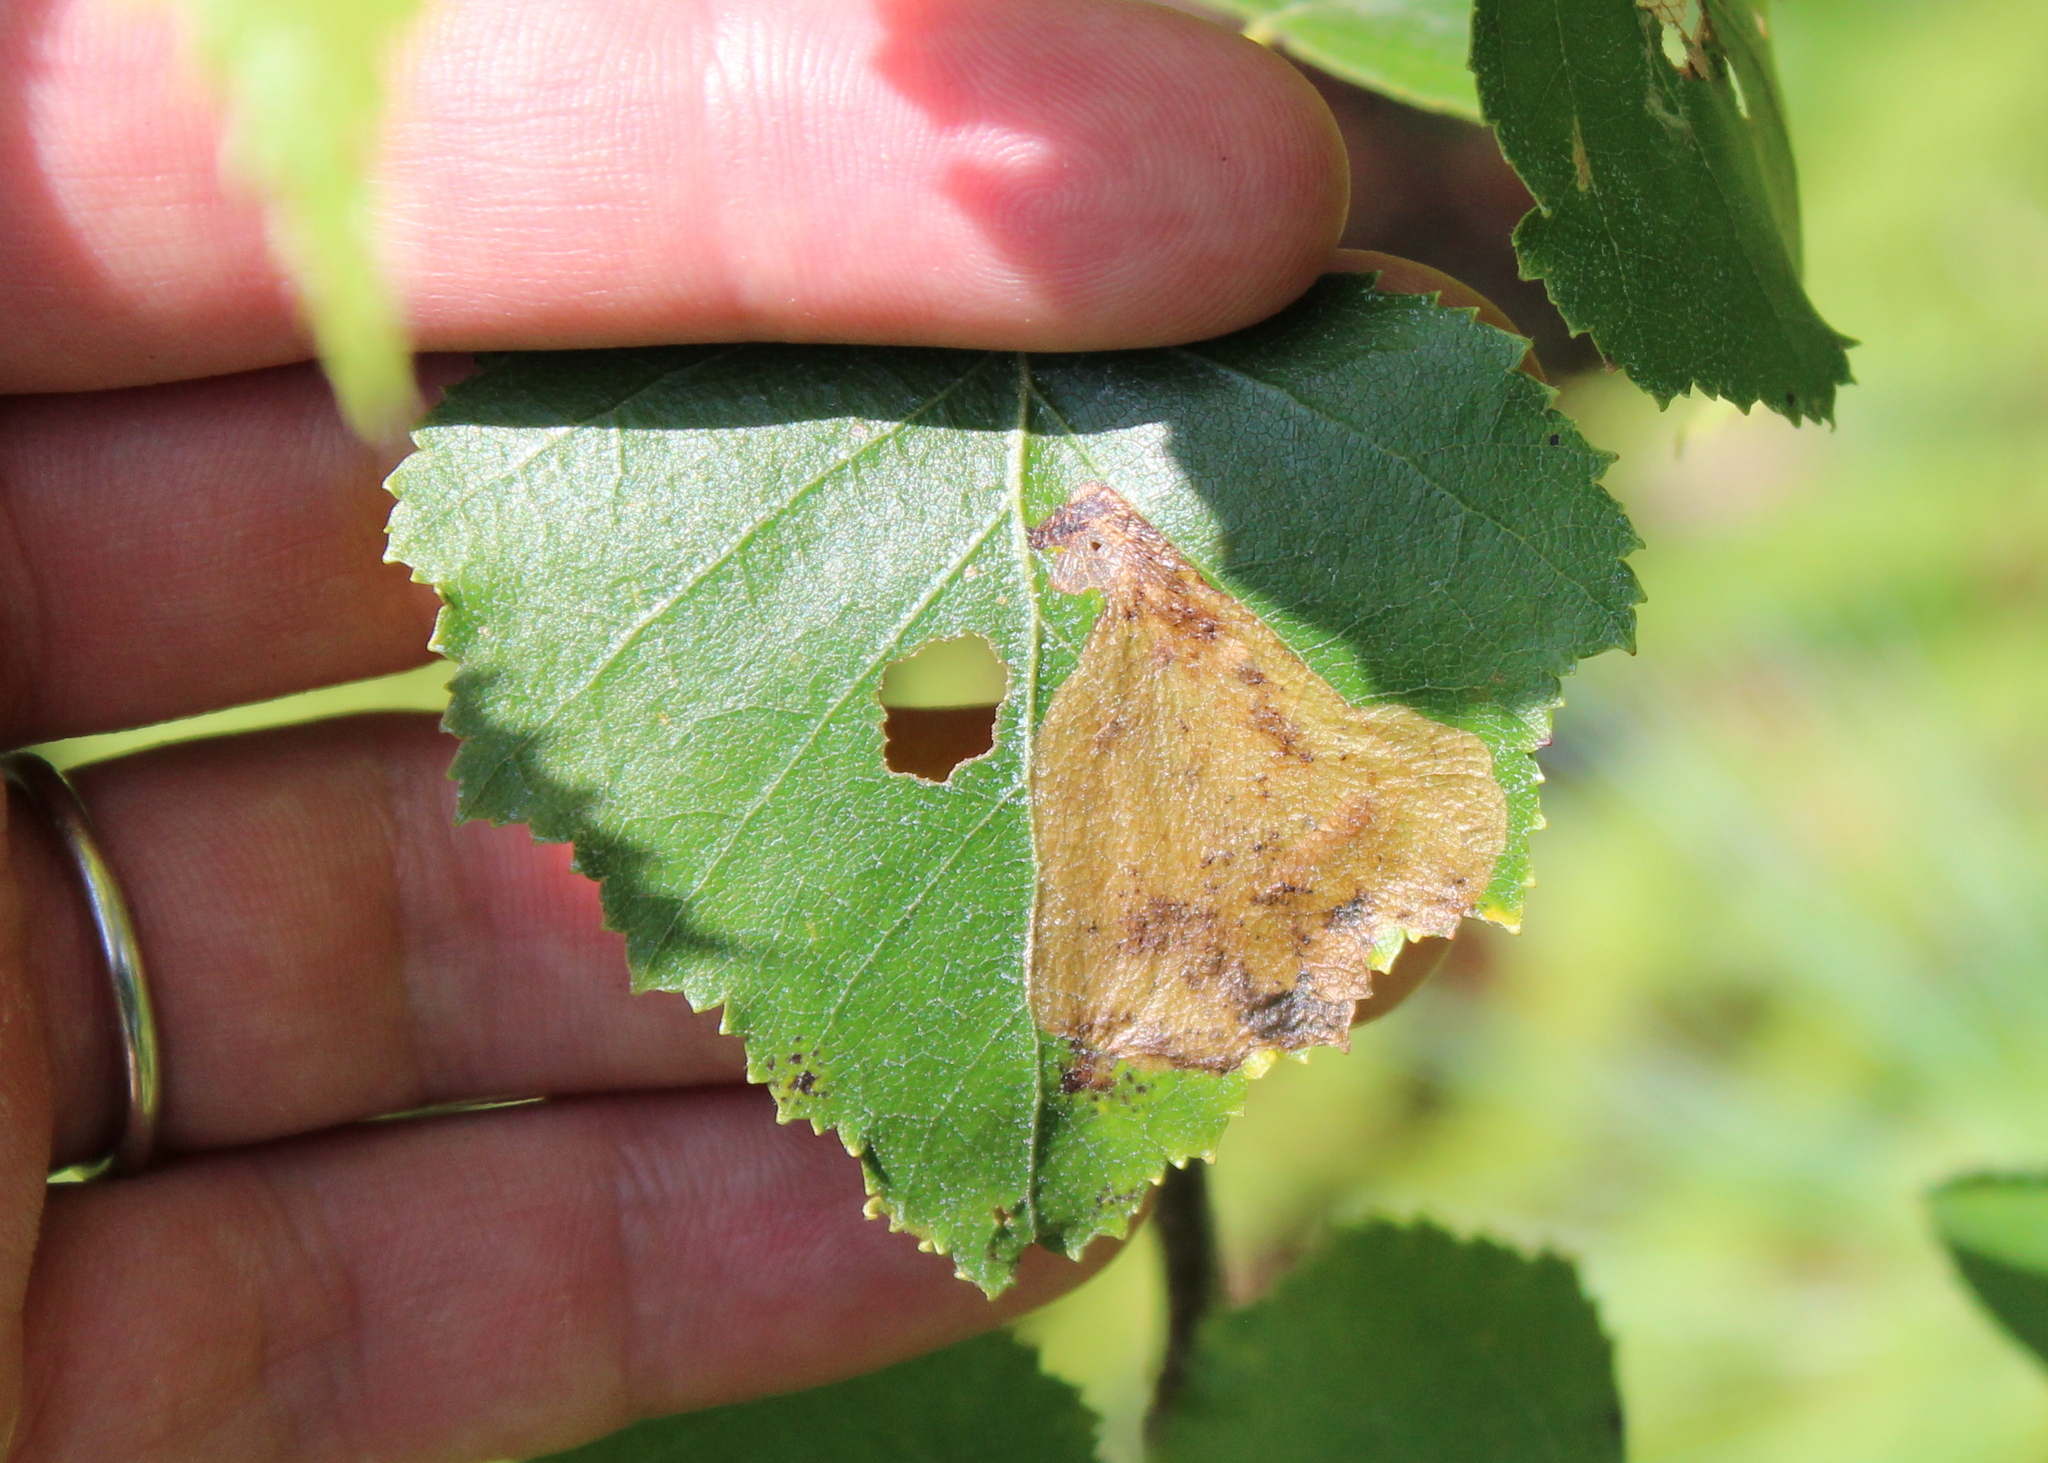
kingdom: Animalia
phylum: Arthropoda
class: Insecta
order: Hymenoptera
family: Tenthredinidae
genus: Fenusella
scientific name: Fenusella nana
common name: Early birch leaf edgeminer
